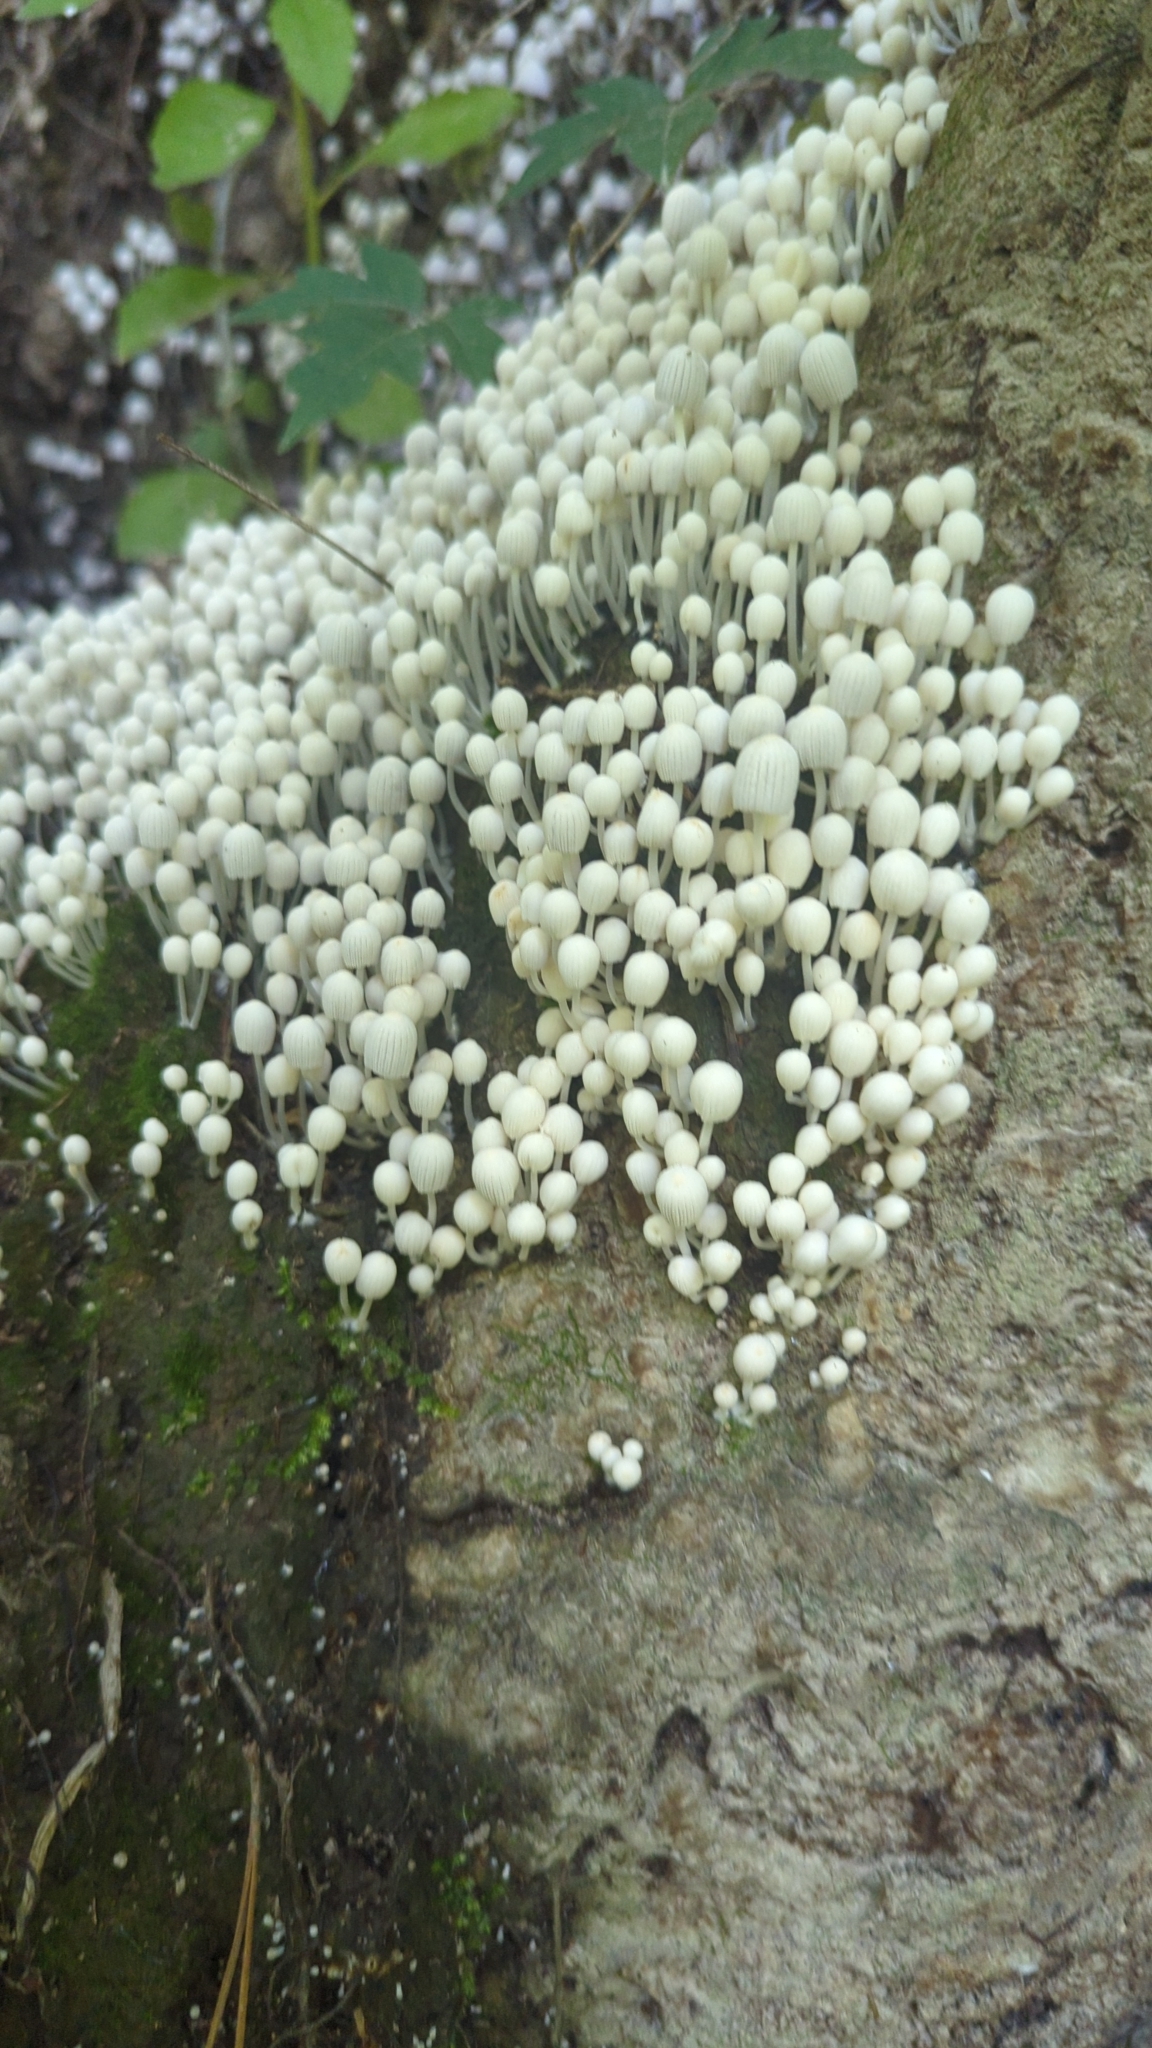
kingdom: Fungi
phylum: Basidiomycota
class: Agaricomycetes
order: Agaricales
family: Psathyrellaceae
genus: Coprinellus
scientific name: Coprinellus disseminatus
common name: Fairies' bonnets
